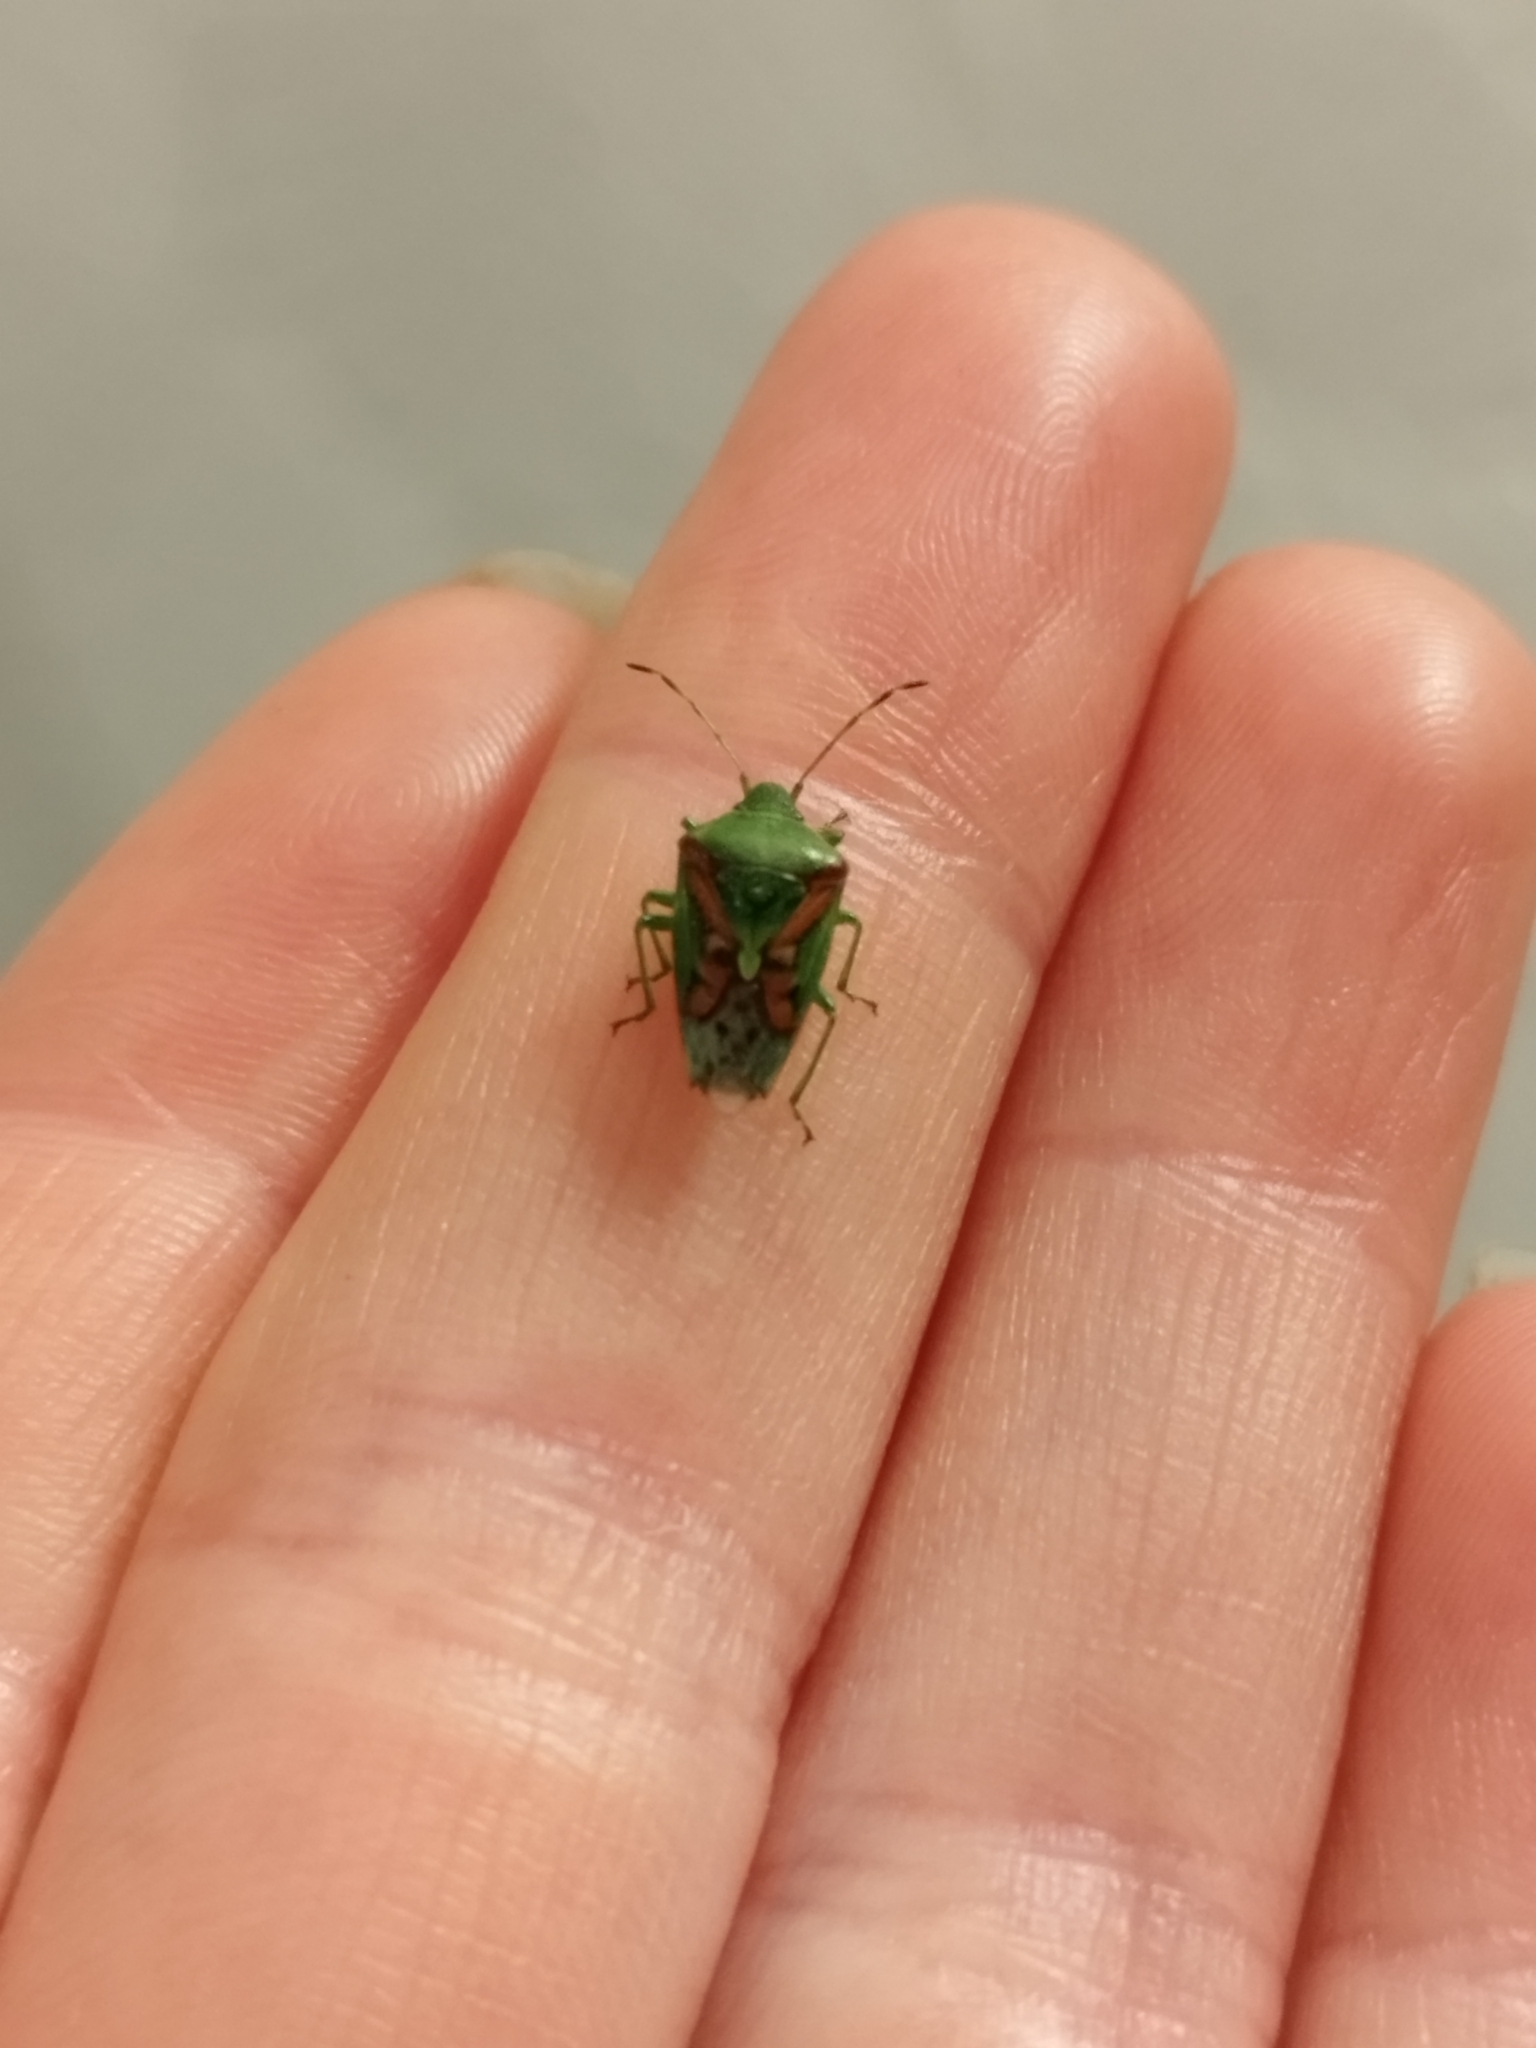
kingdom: Animalia
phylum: Arthropoda
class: Insecta
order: Hemiptera
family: Acanthosomatidae
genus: Cyphostethus
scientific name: Cyphostethus tristriatus
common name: Juniper shieldbug
